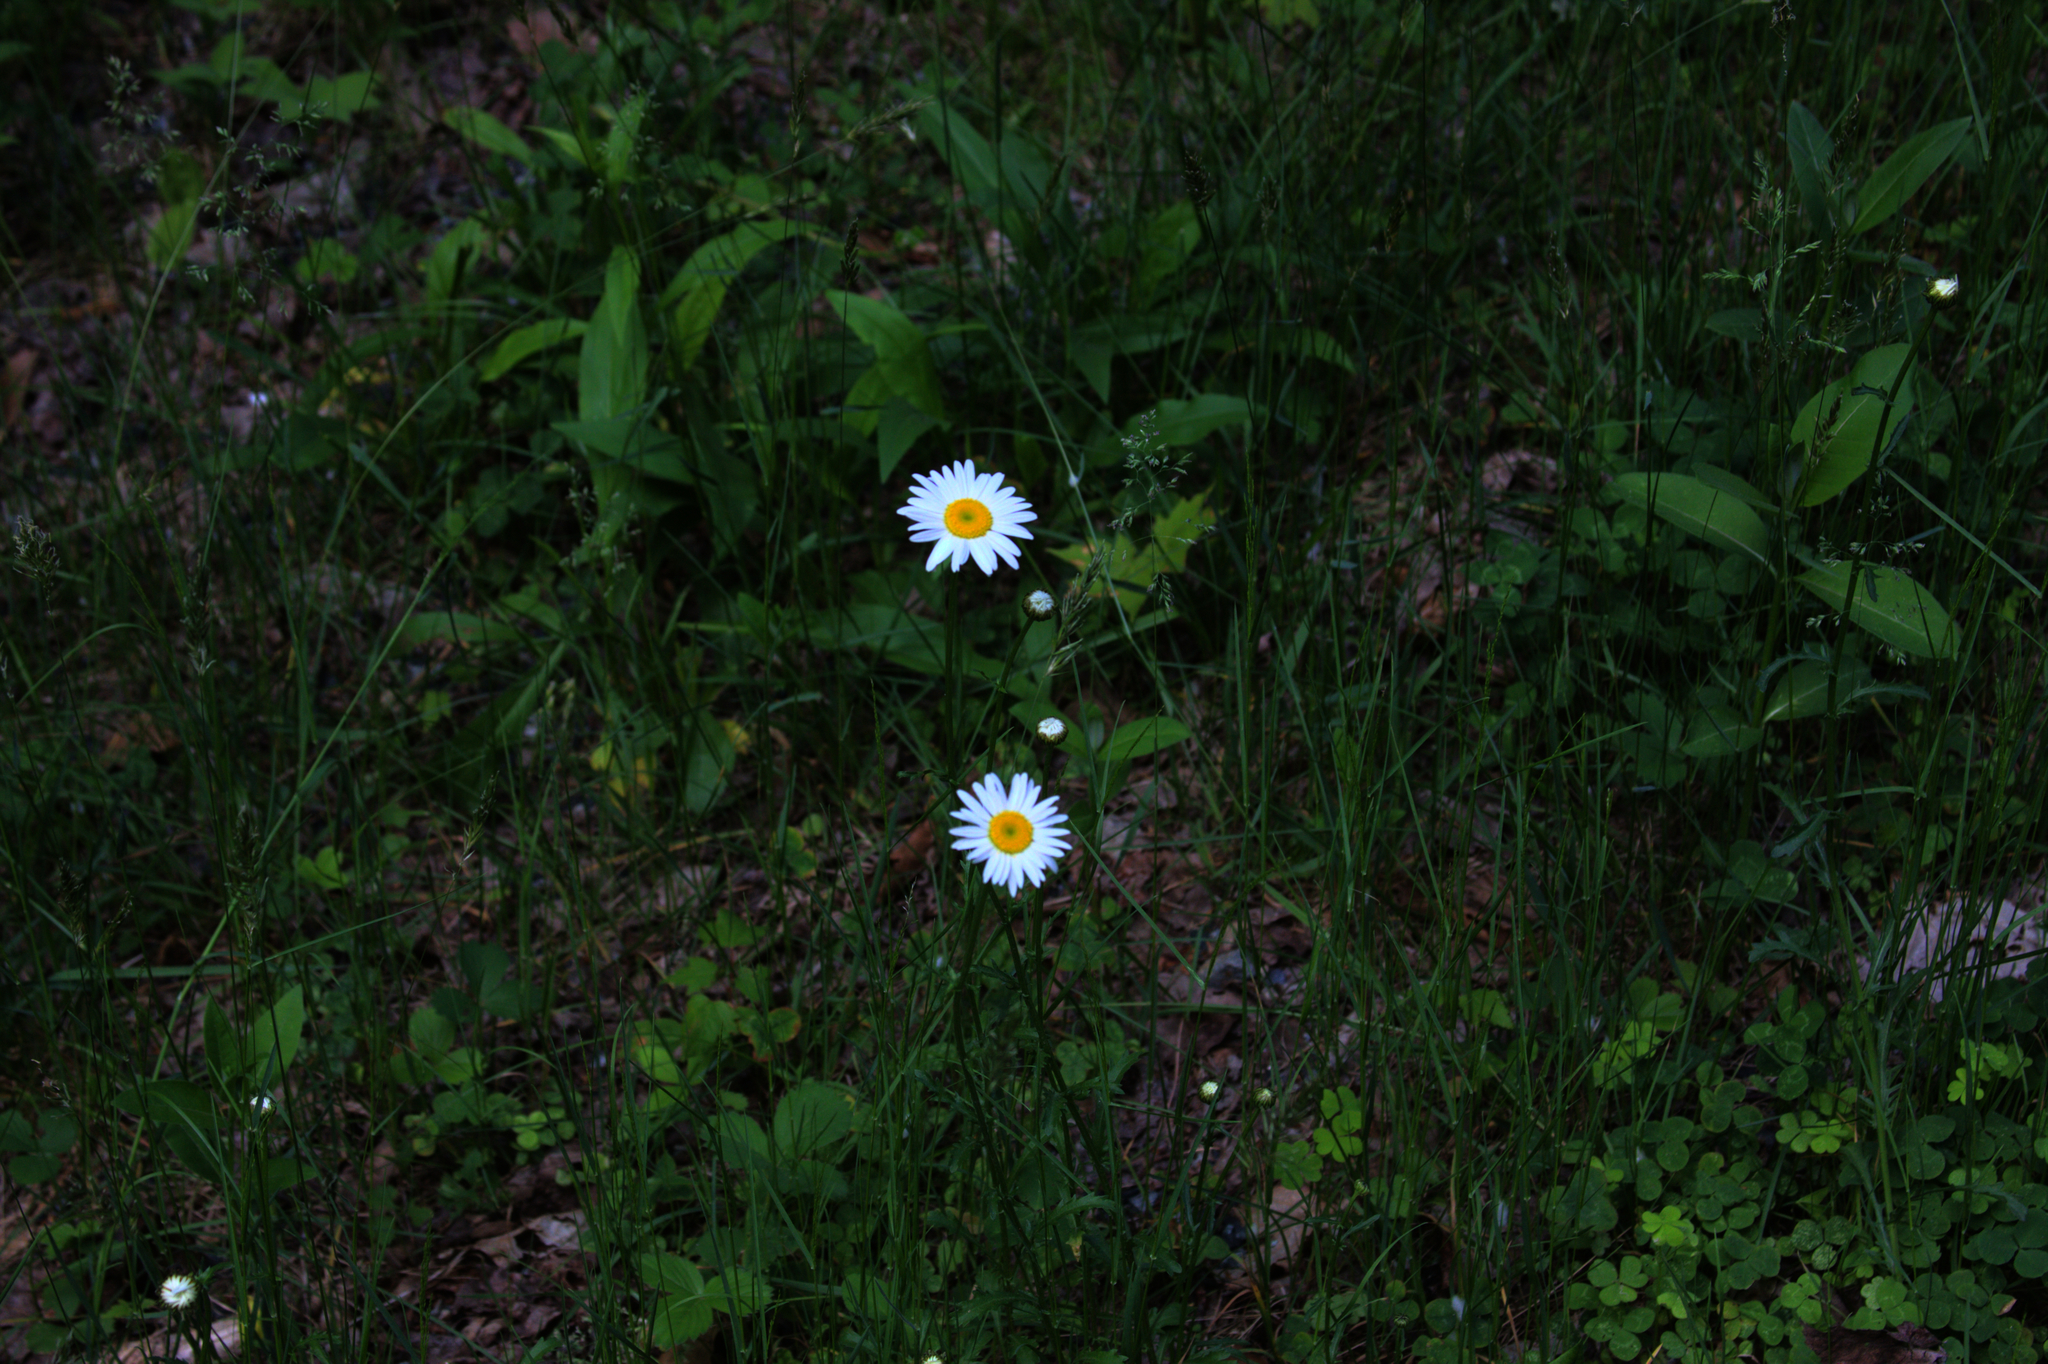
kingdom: Plantae
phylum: Tracheophyta
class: Magnoliopsida
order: Asterales
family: Asteraceae
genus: Leucanthemum
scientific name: Leucanthemum vulgare
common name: Oxeye daisy
